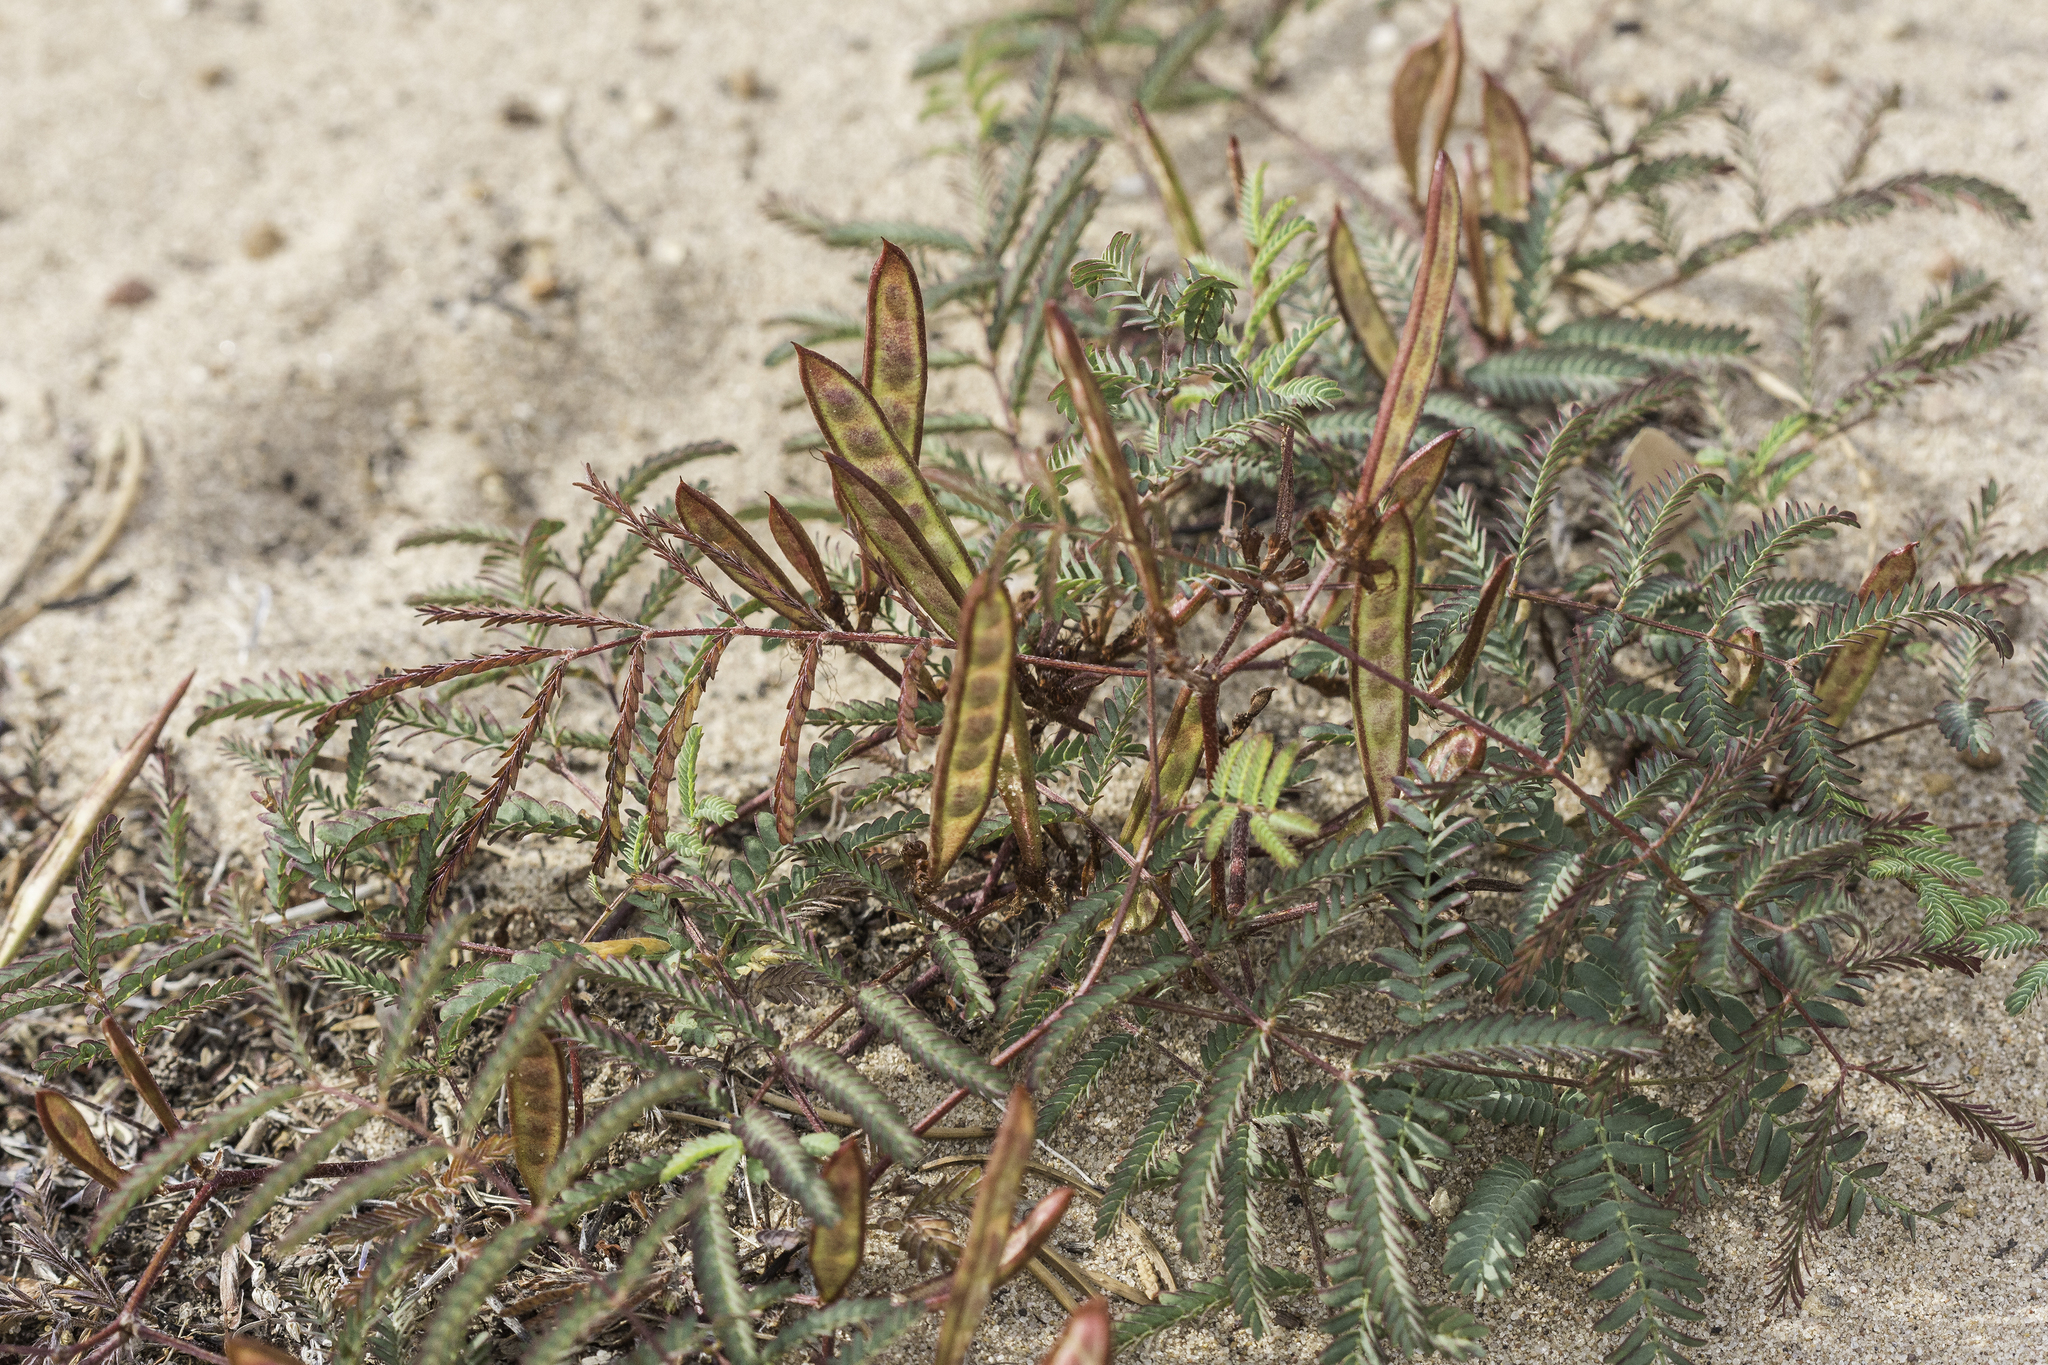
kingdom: Plantae
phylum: Tracheophyta
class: Magnoliopsida
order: Fabales
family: Fabaceae
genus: Calliandra
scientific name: Calliandra humilis
